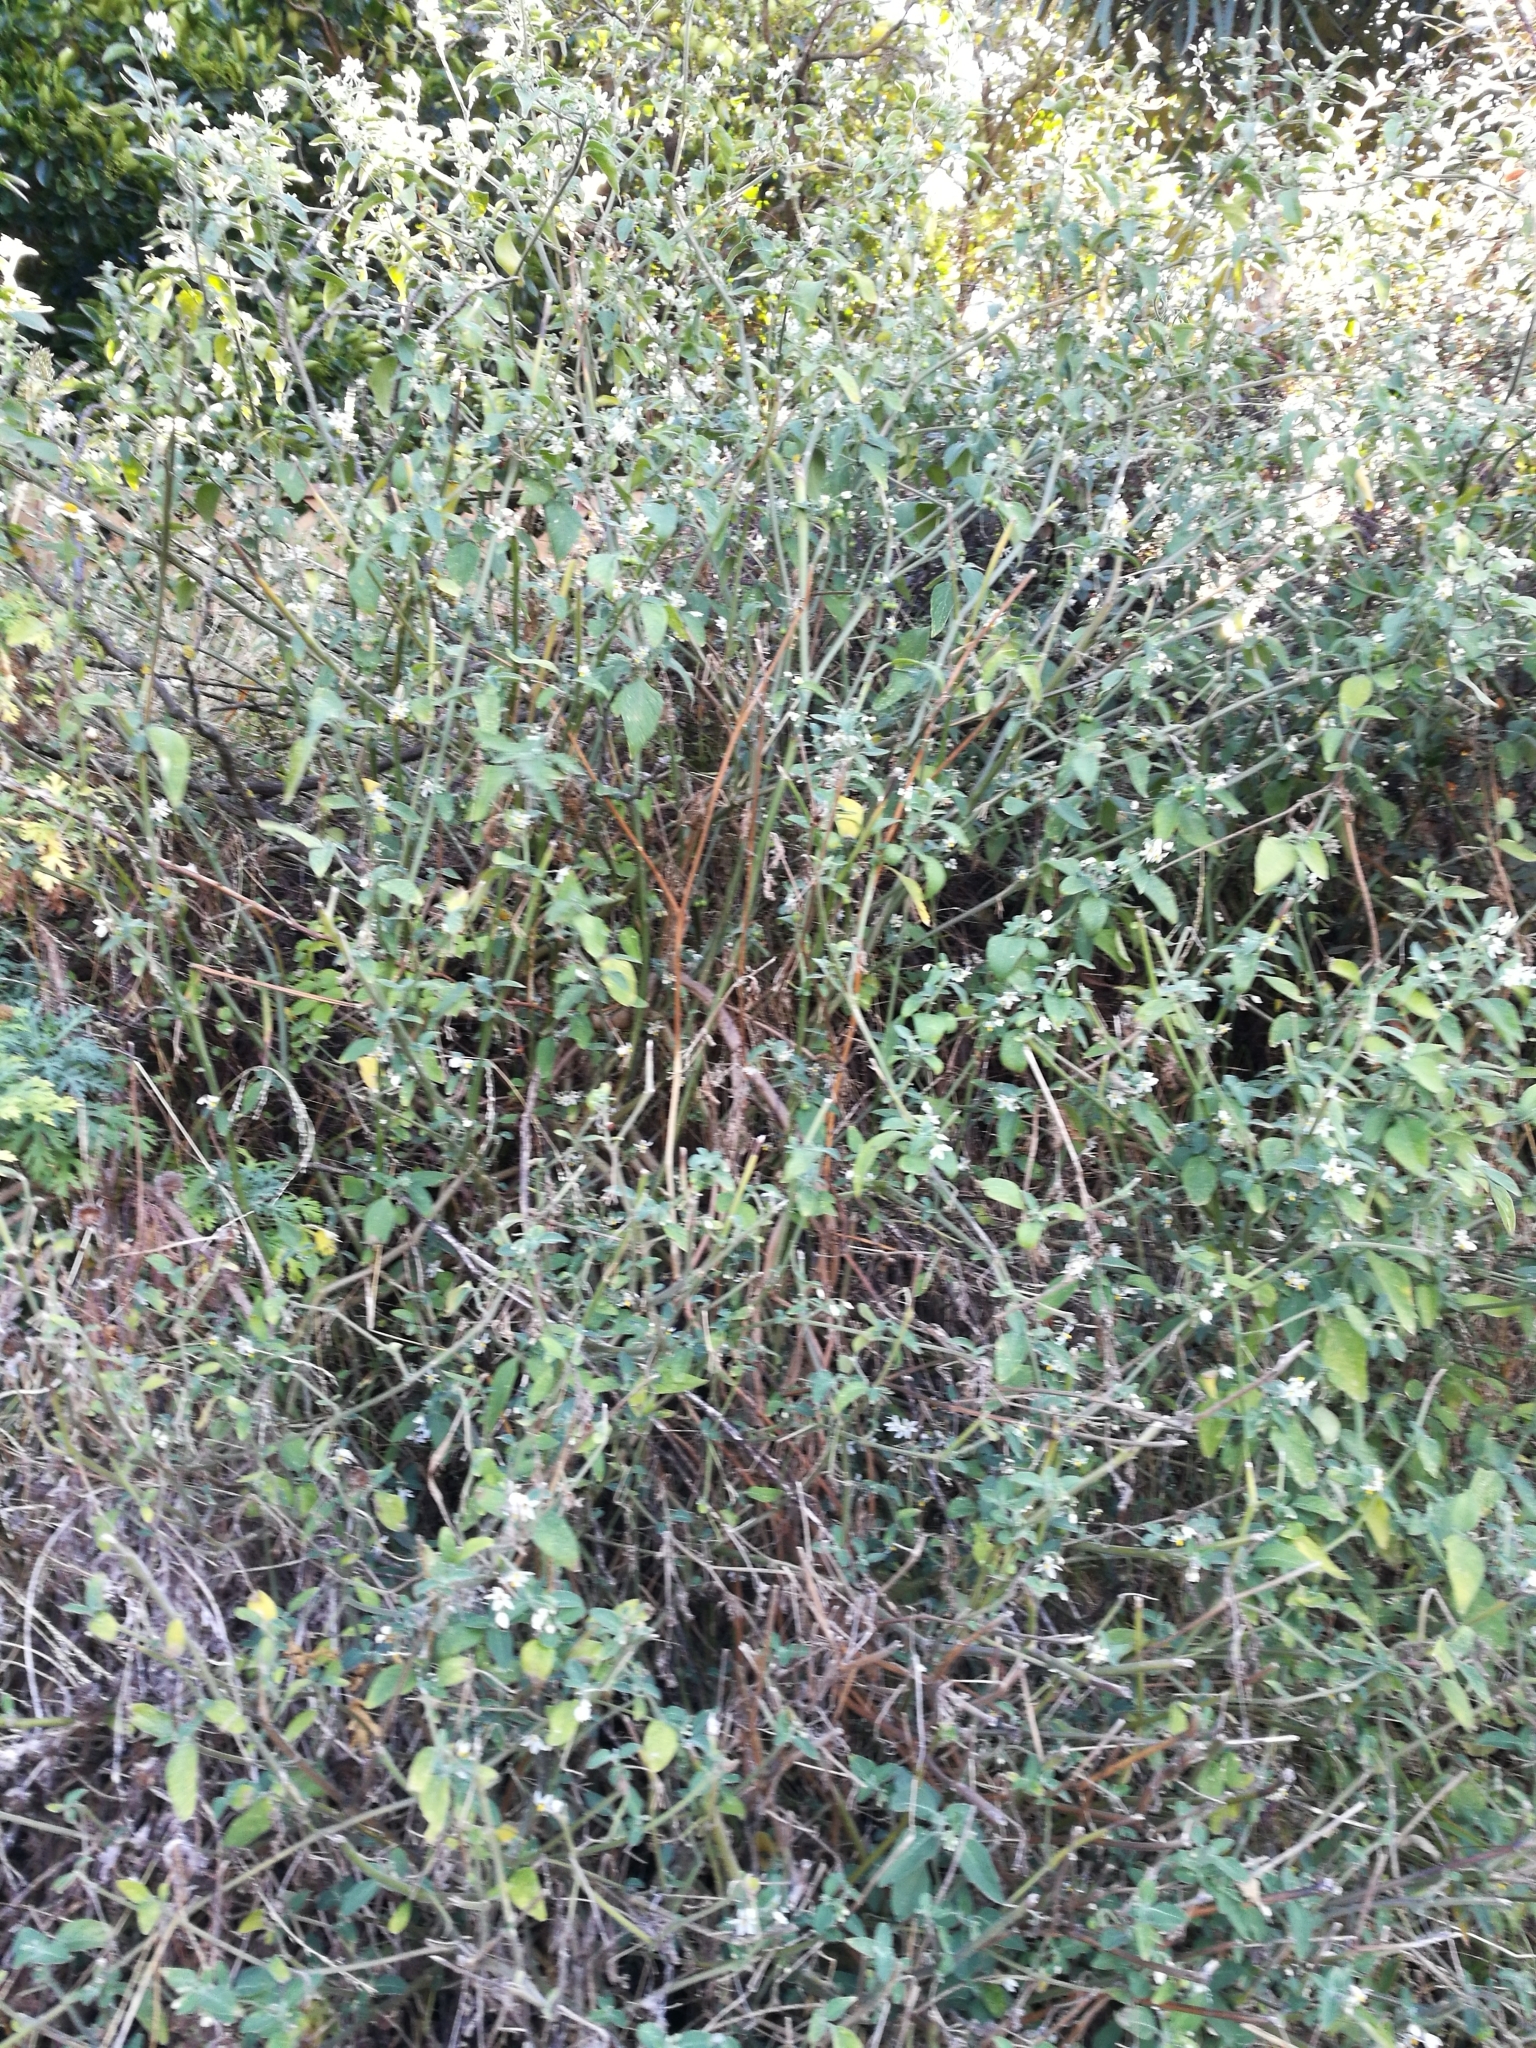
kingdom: Plantae
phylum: Tracheophyta
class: Magnoliopsida
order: Solanales
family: Solanaceae
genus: Solanum
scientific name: Solanum chenopodioides
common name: Tall nightshade
